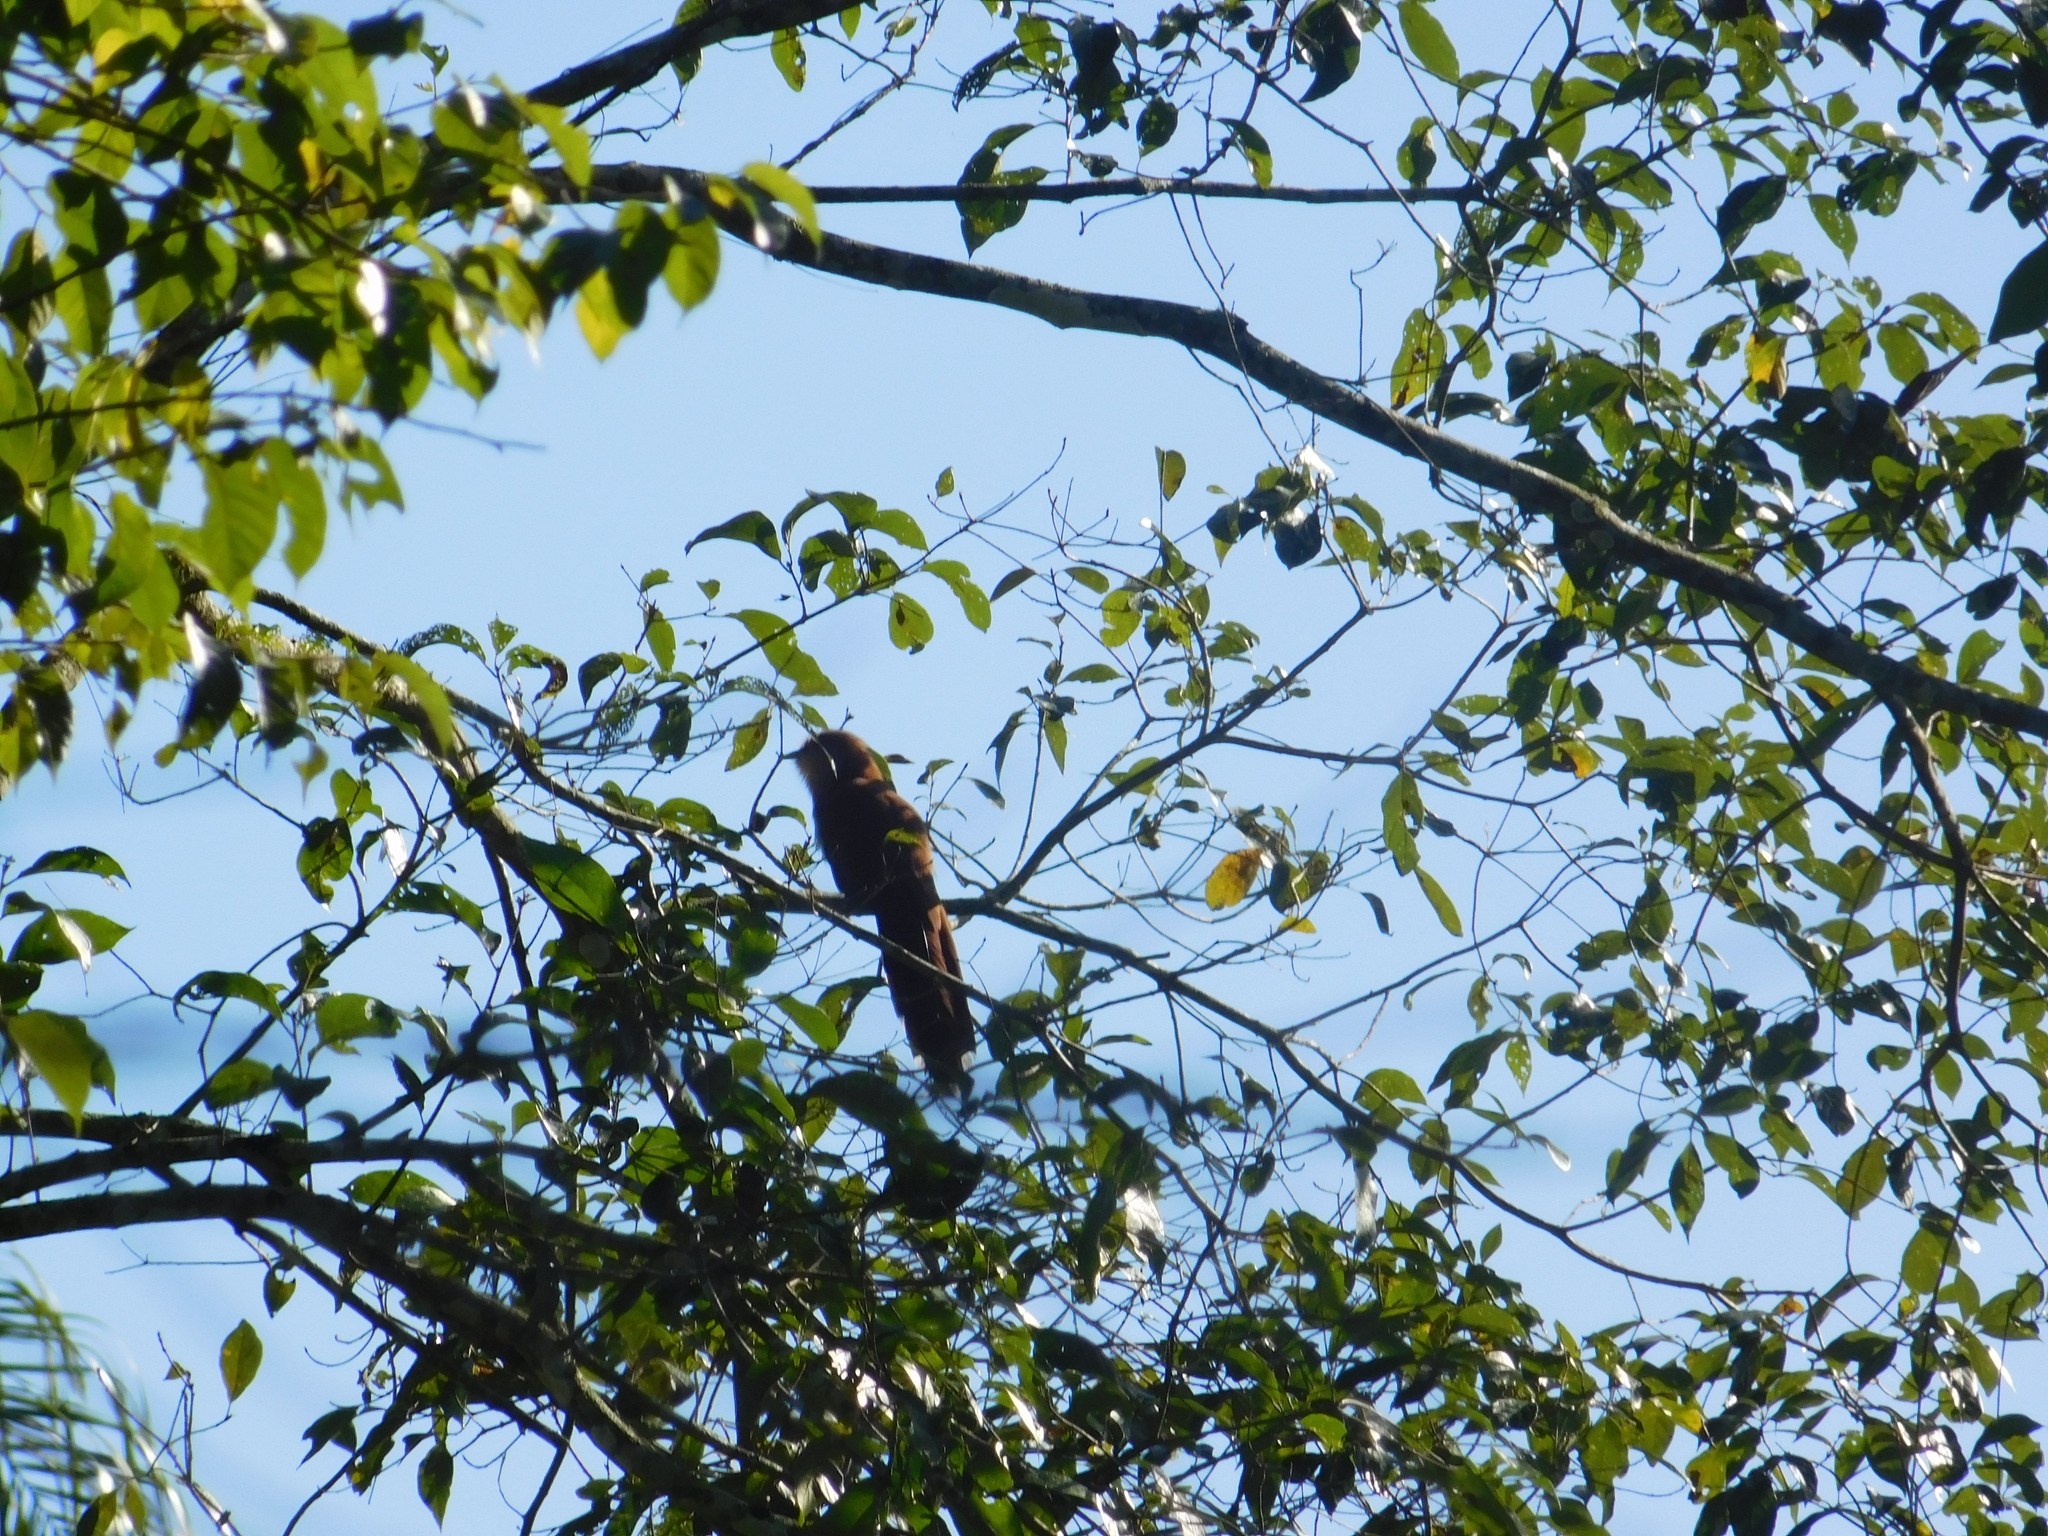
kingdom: Animalia
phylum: Chordata
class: Aves
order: Cuculiformes
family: Cuculidae
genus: Piaya
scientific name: Piaya cayana
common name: Squirrel cuckoo
